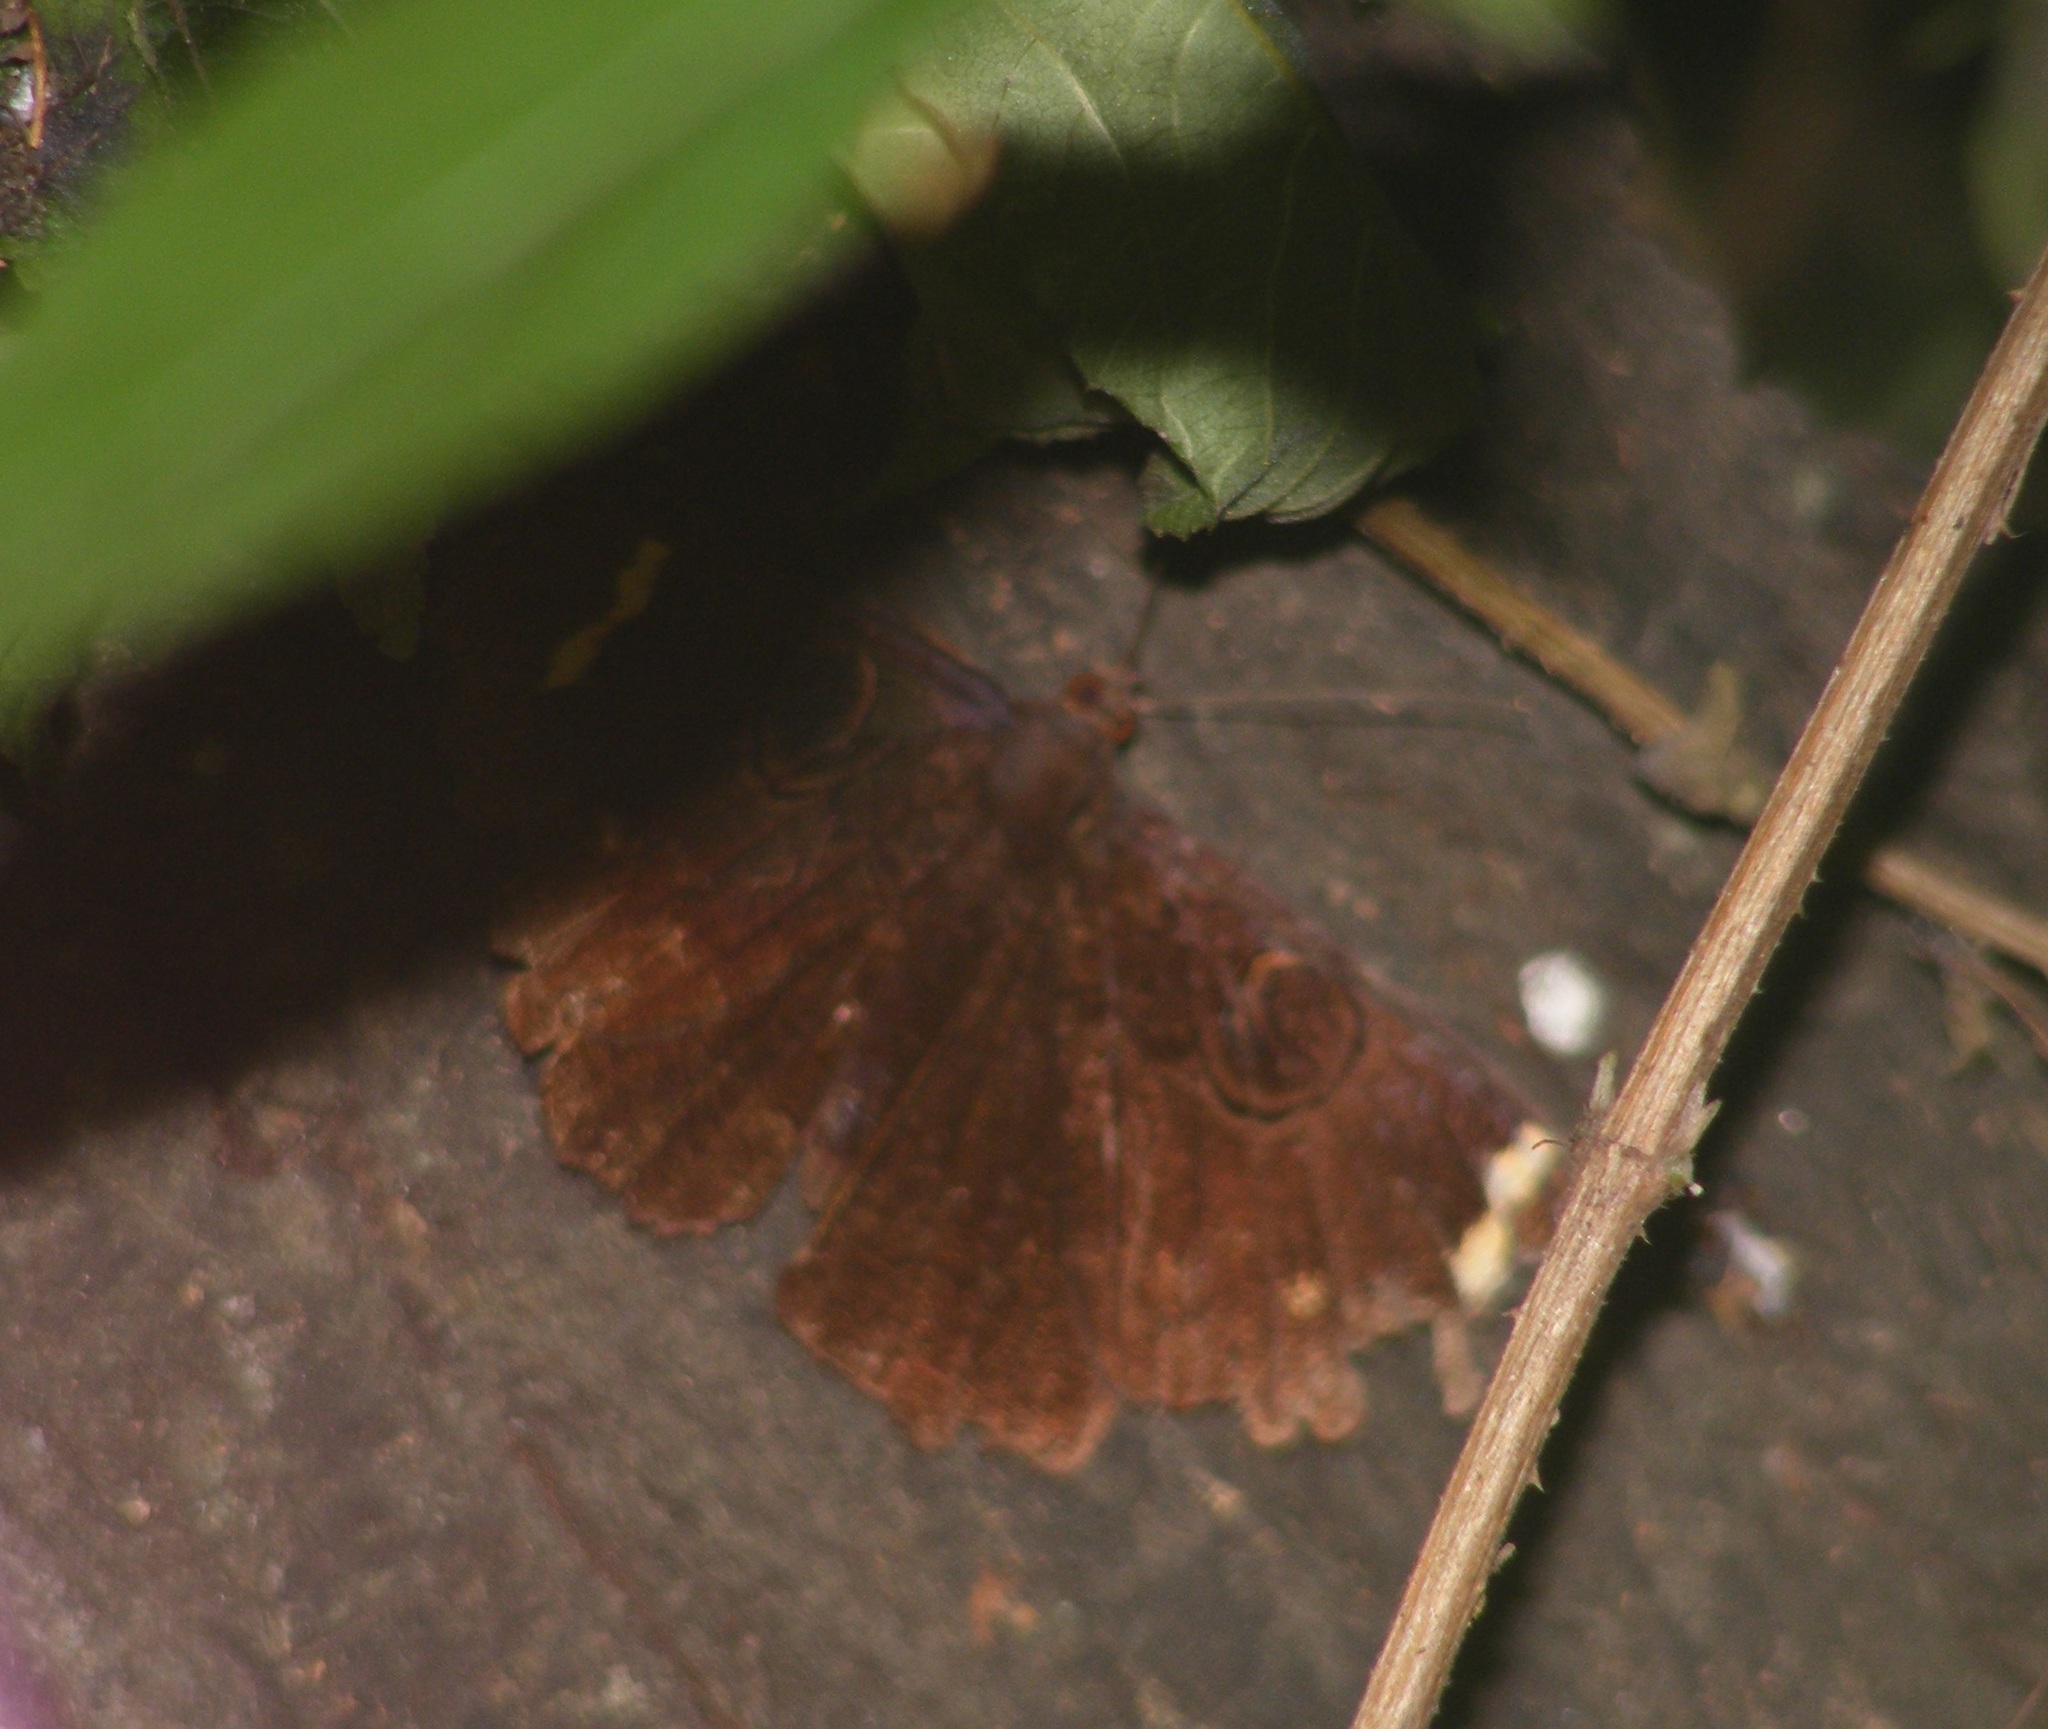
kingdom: Animalia
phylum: Arthropoda
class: Insecta
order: Lepidoptera
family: Erebidae
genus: Erebus
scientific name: Erebus hieroglyphica
